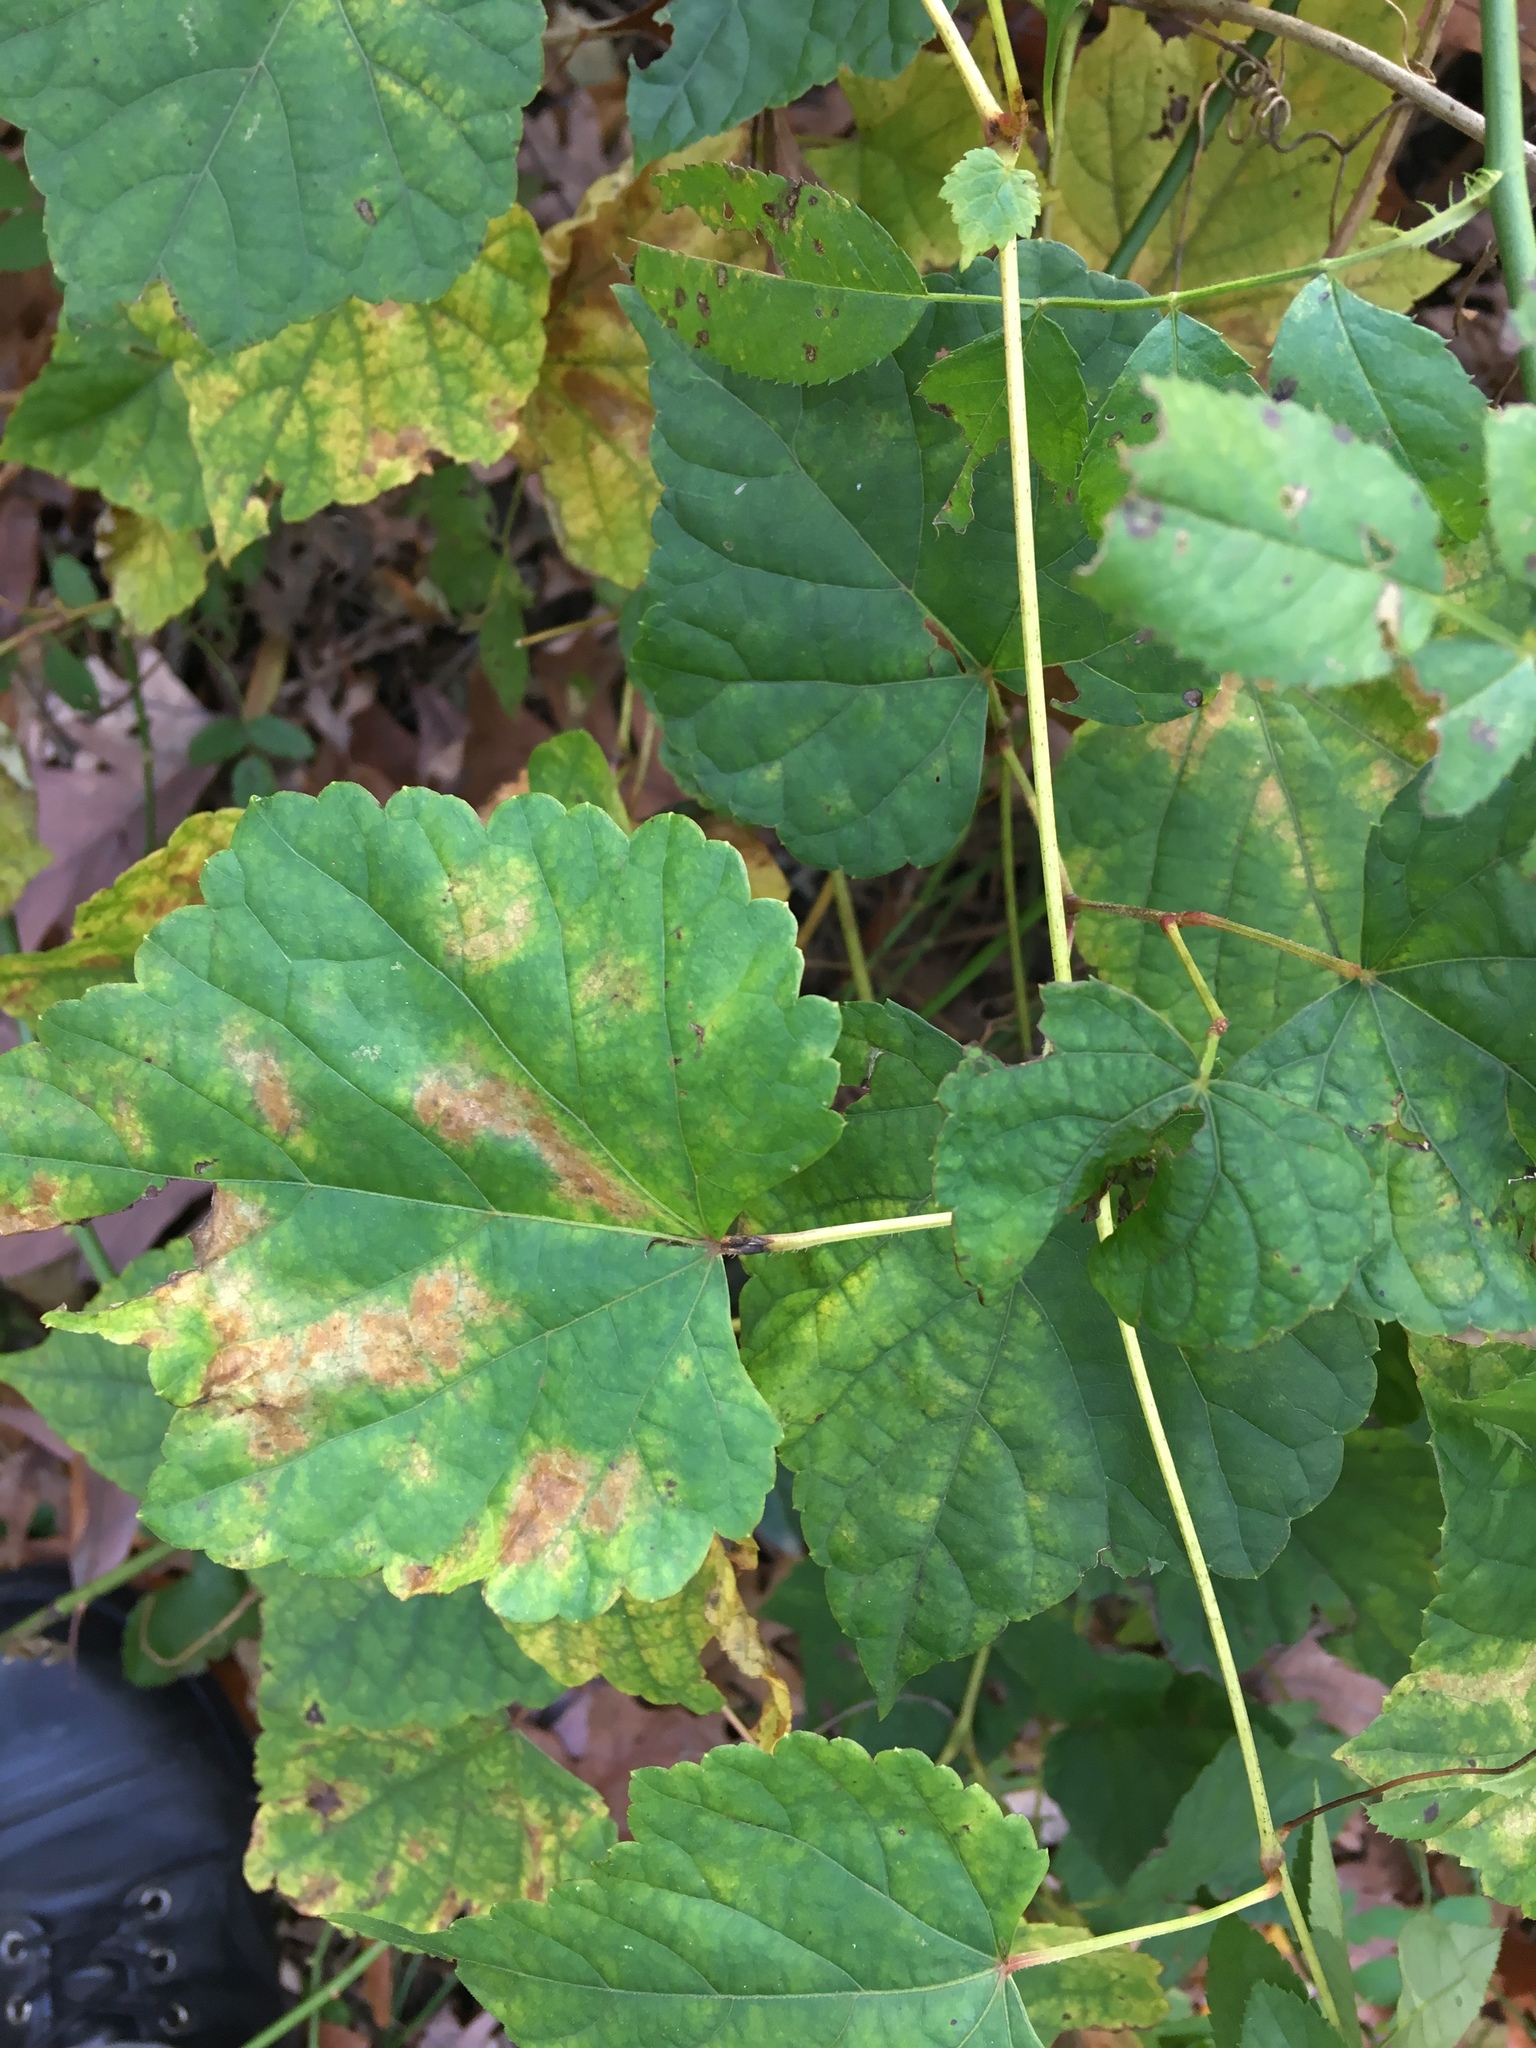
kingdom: Plantae
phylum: Tracheophyta
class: Magnoliopsida
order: Vitales
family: Vitaceae
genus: Ampelopsis
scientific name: Ampelopsis glandulosa
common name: Amur peppervine
